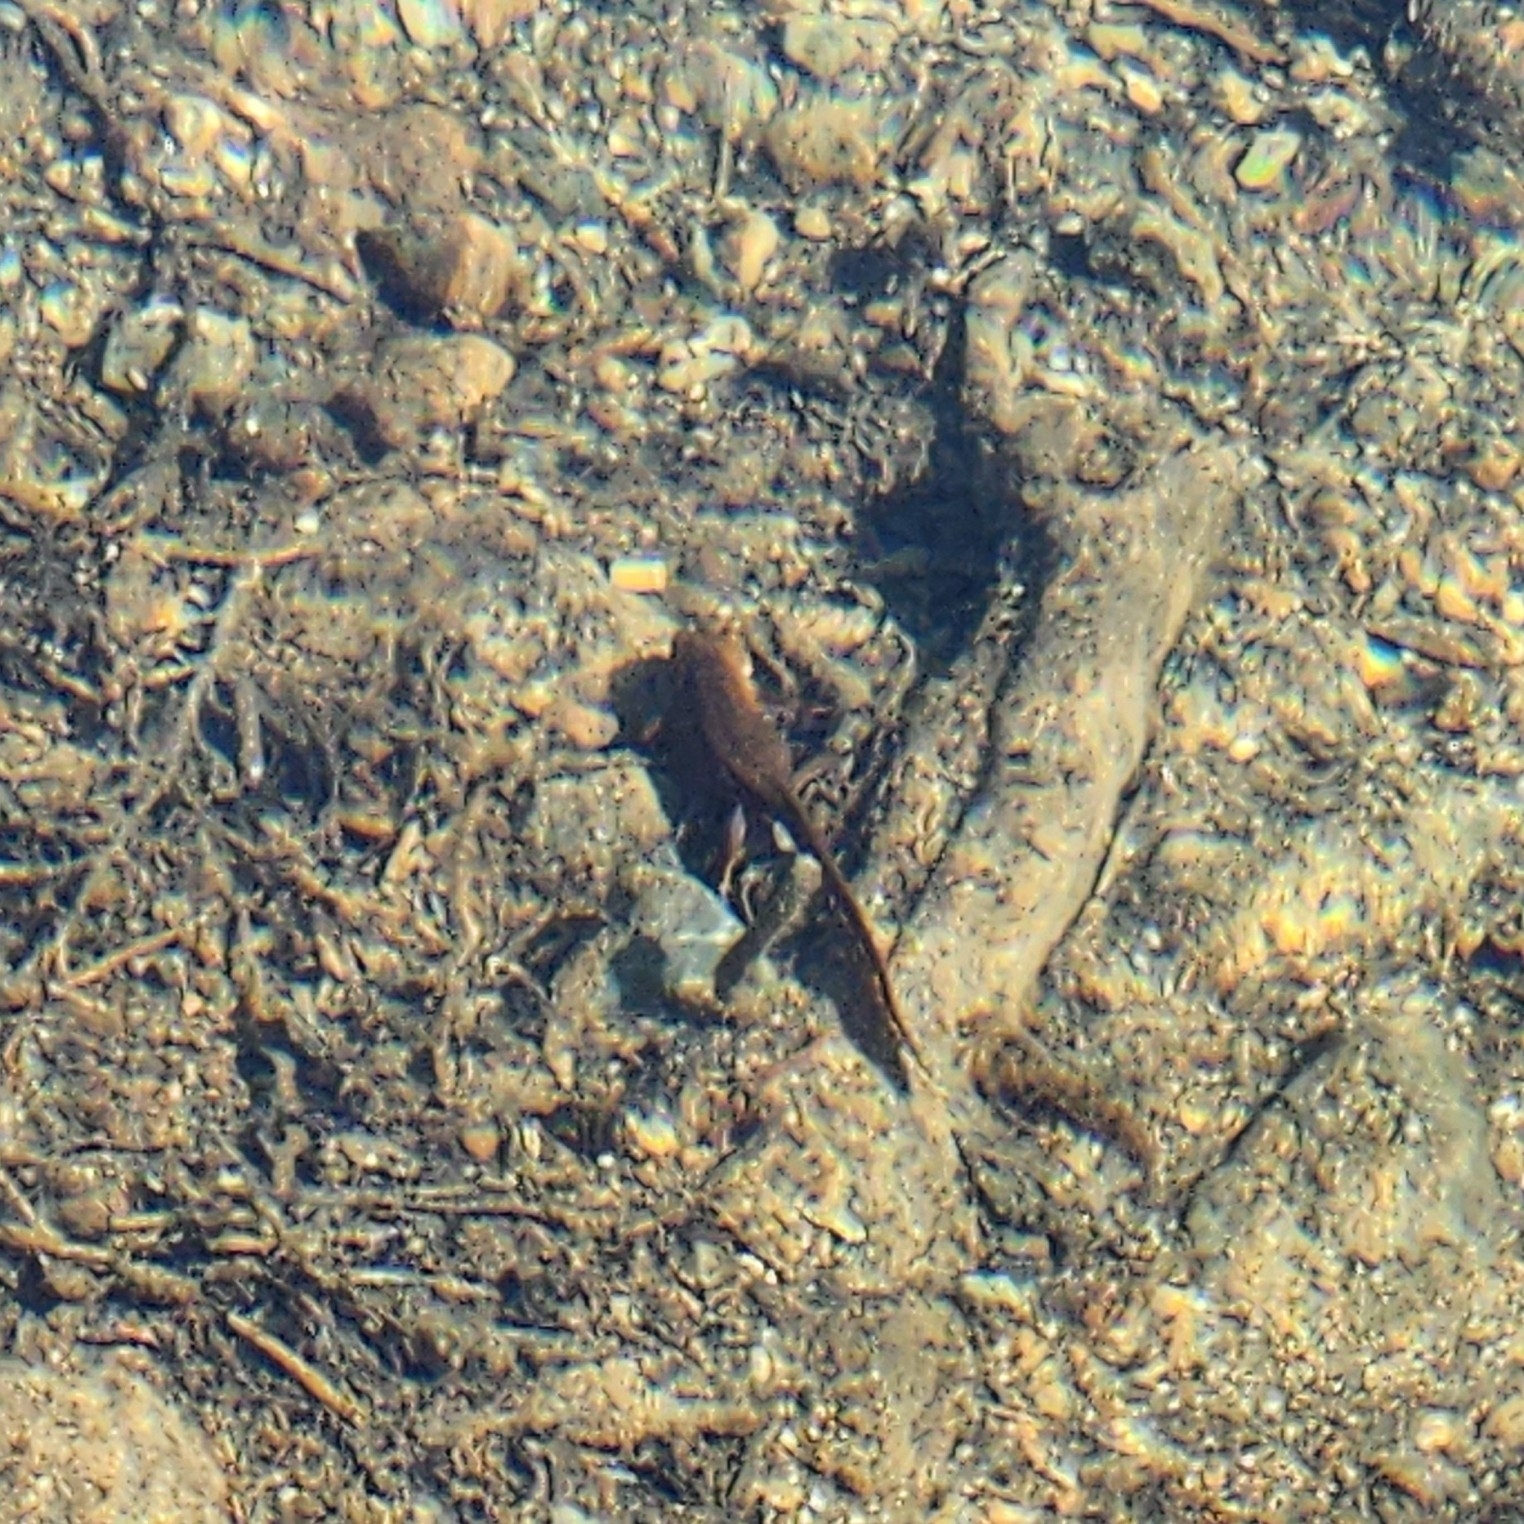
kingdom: Animalia
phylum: Chordata
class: Amphibia
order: Caudata
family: Salamandridae
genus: Taricha
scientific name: Taricha granulosa
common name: Roughskin newt
